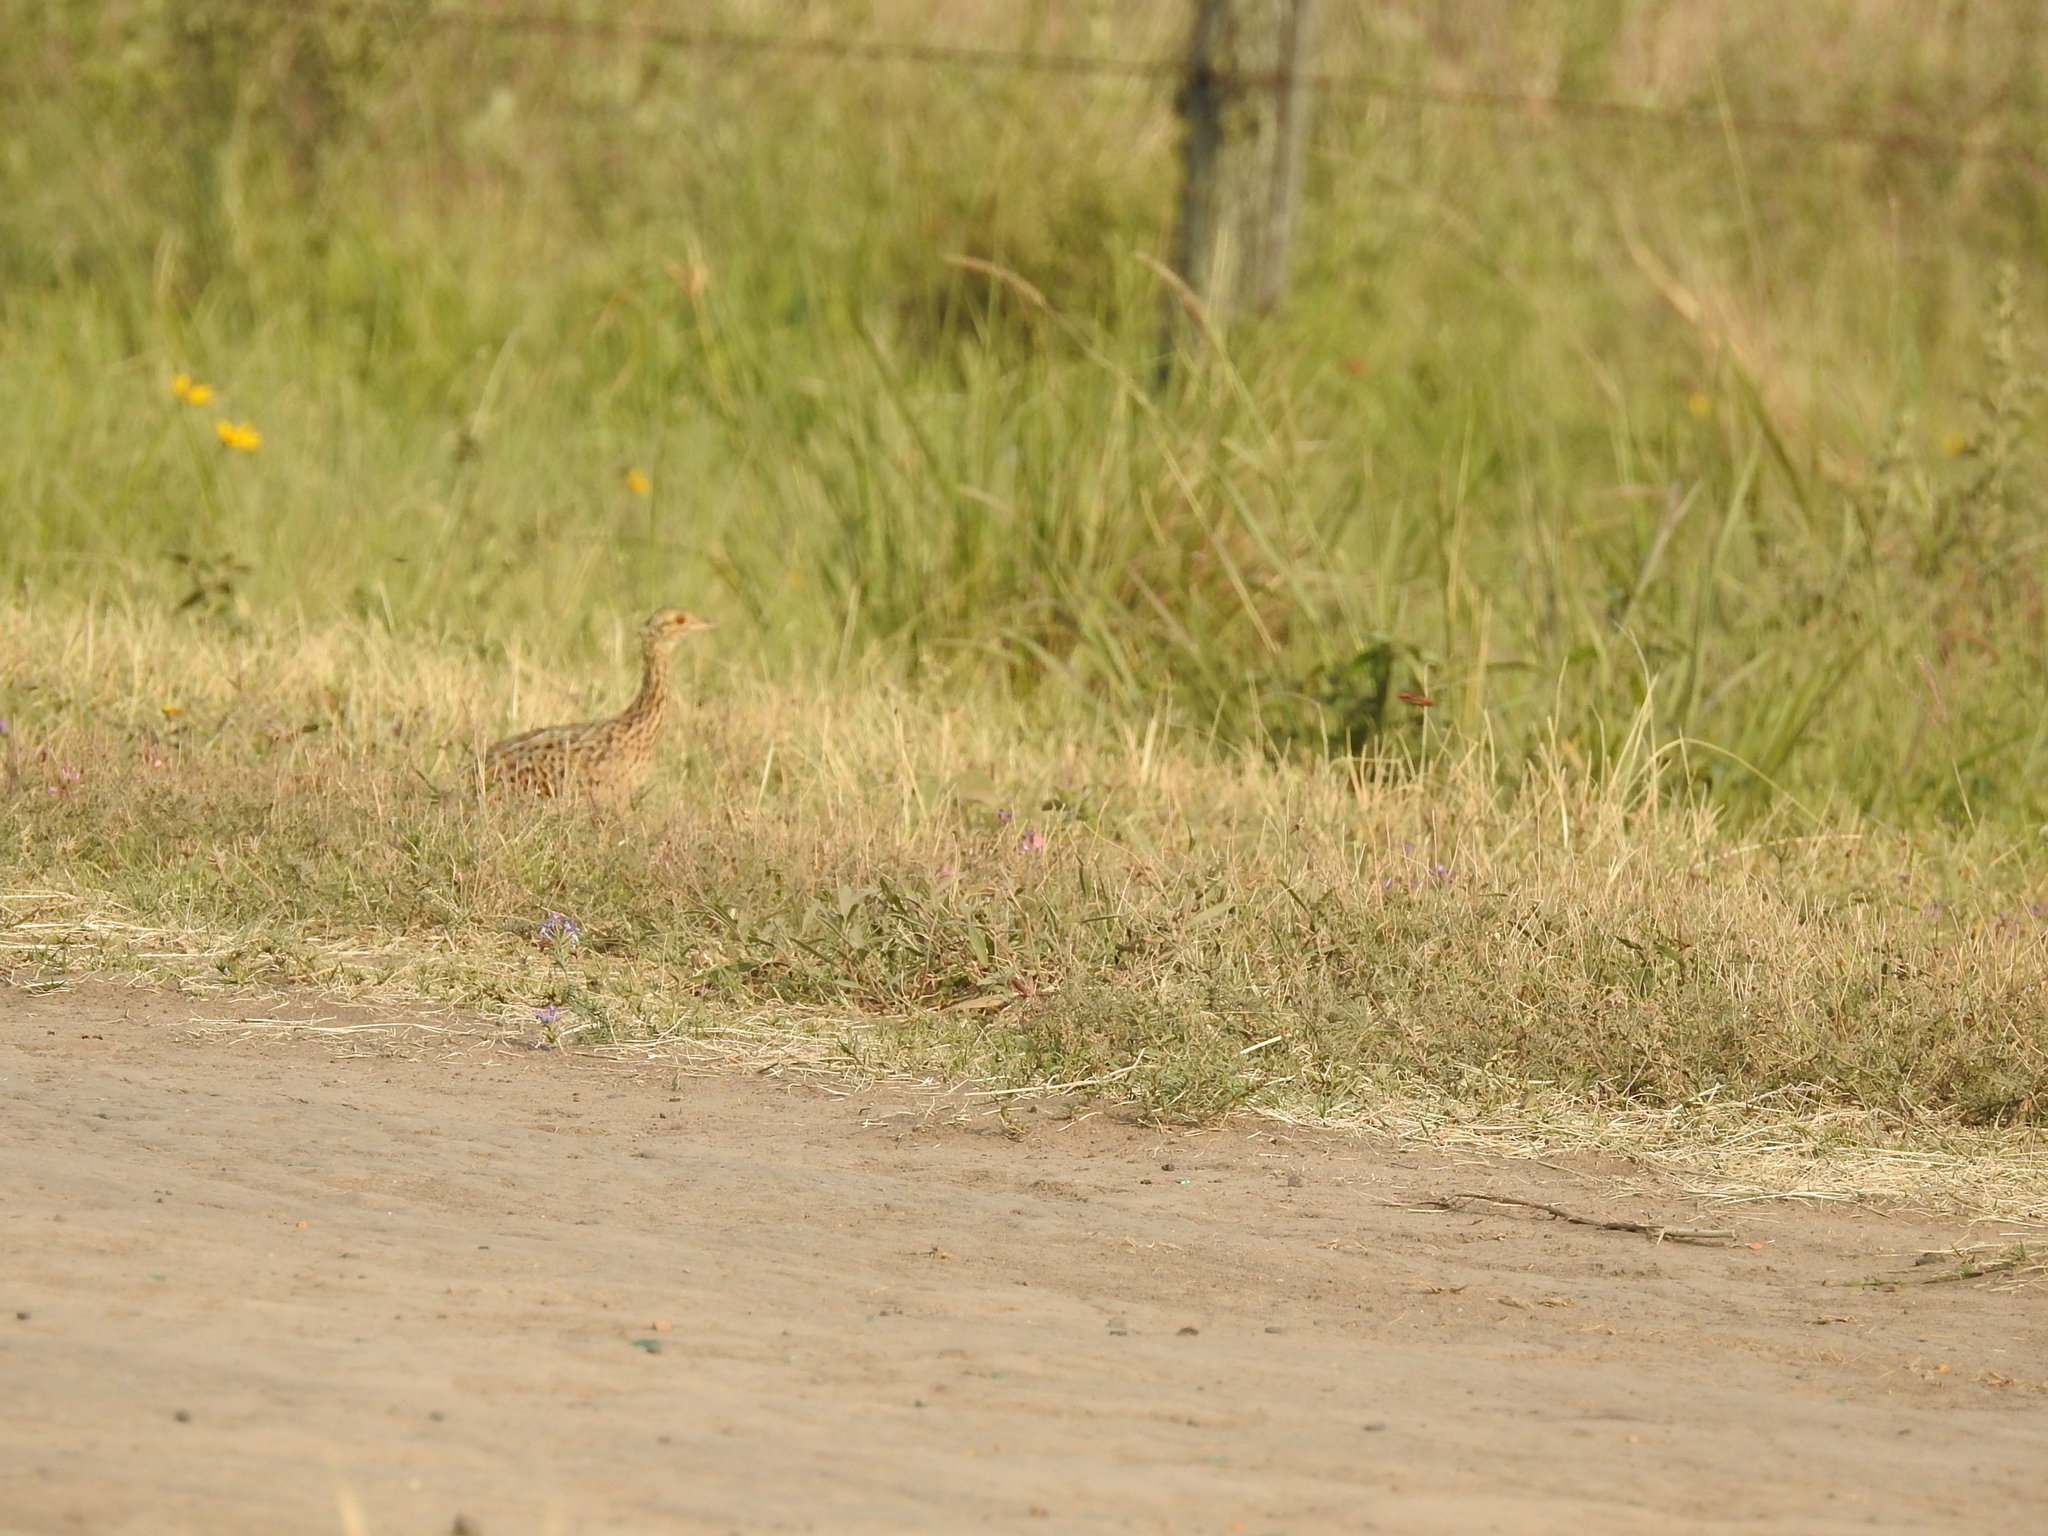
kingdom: Animalia
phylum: Chordata
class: Aves
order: Tinamiformes
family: Tinamidae
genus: Nothura
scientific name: Nothura maculosa
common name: Spotted nothura
